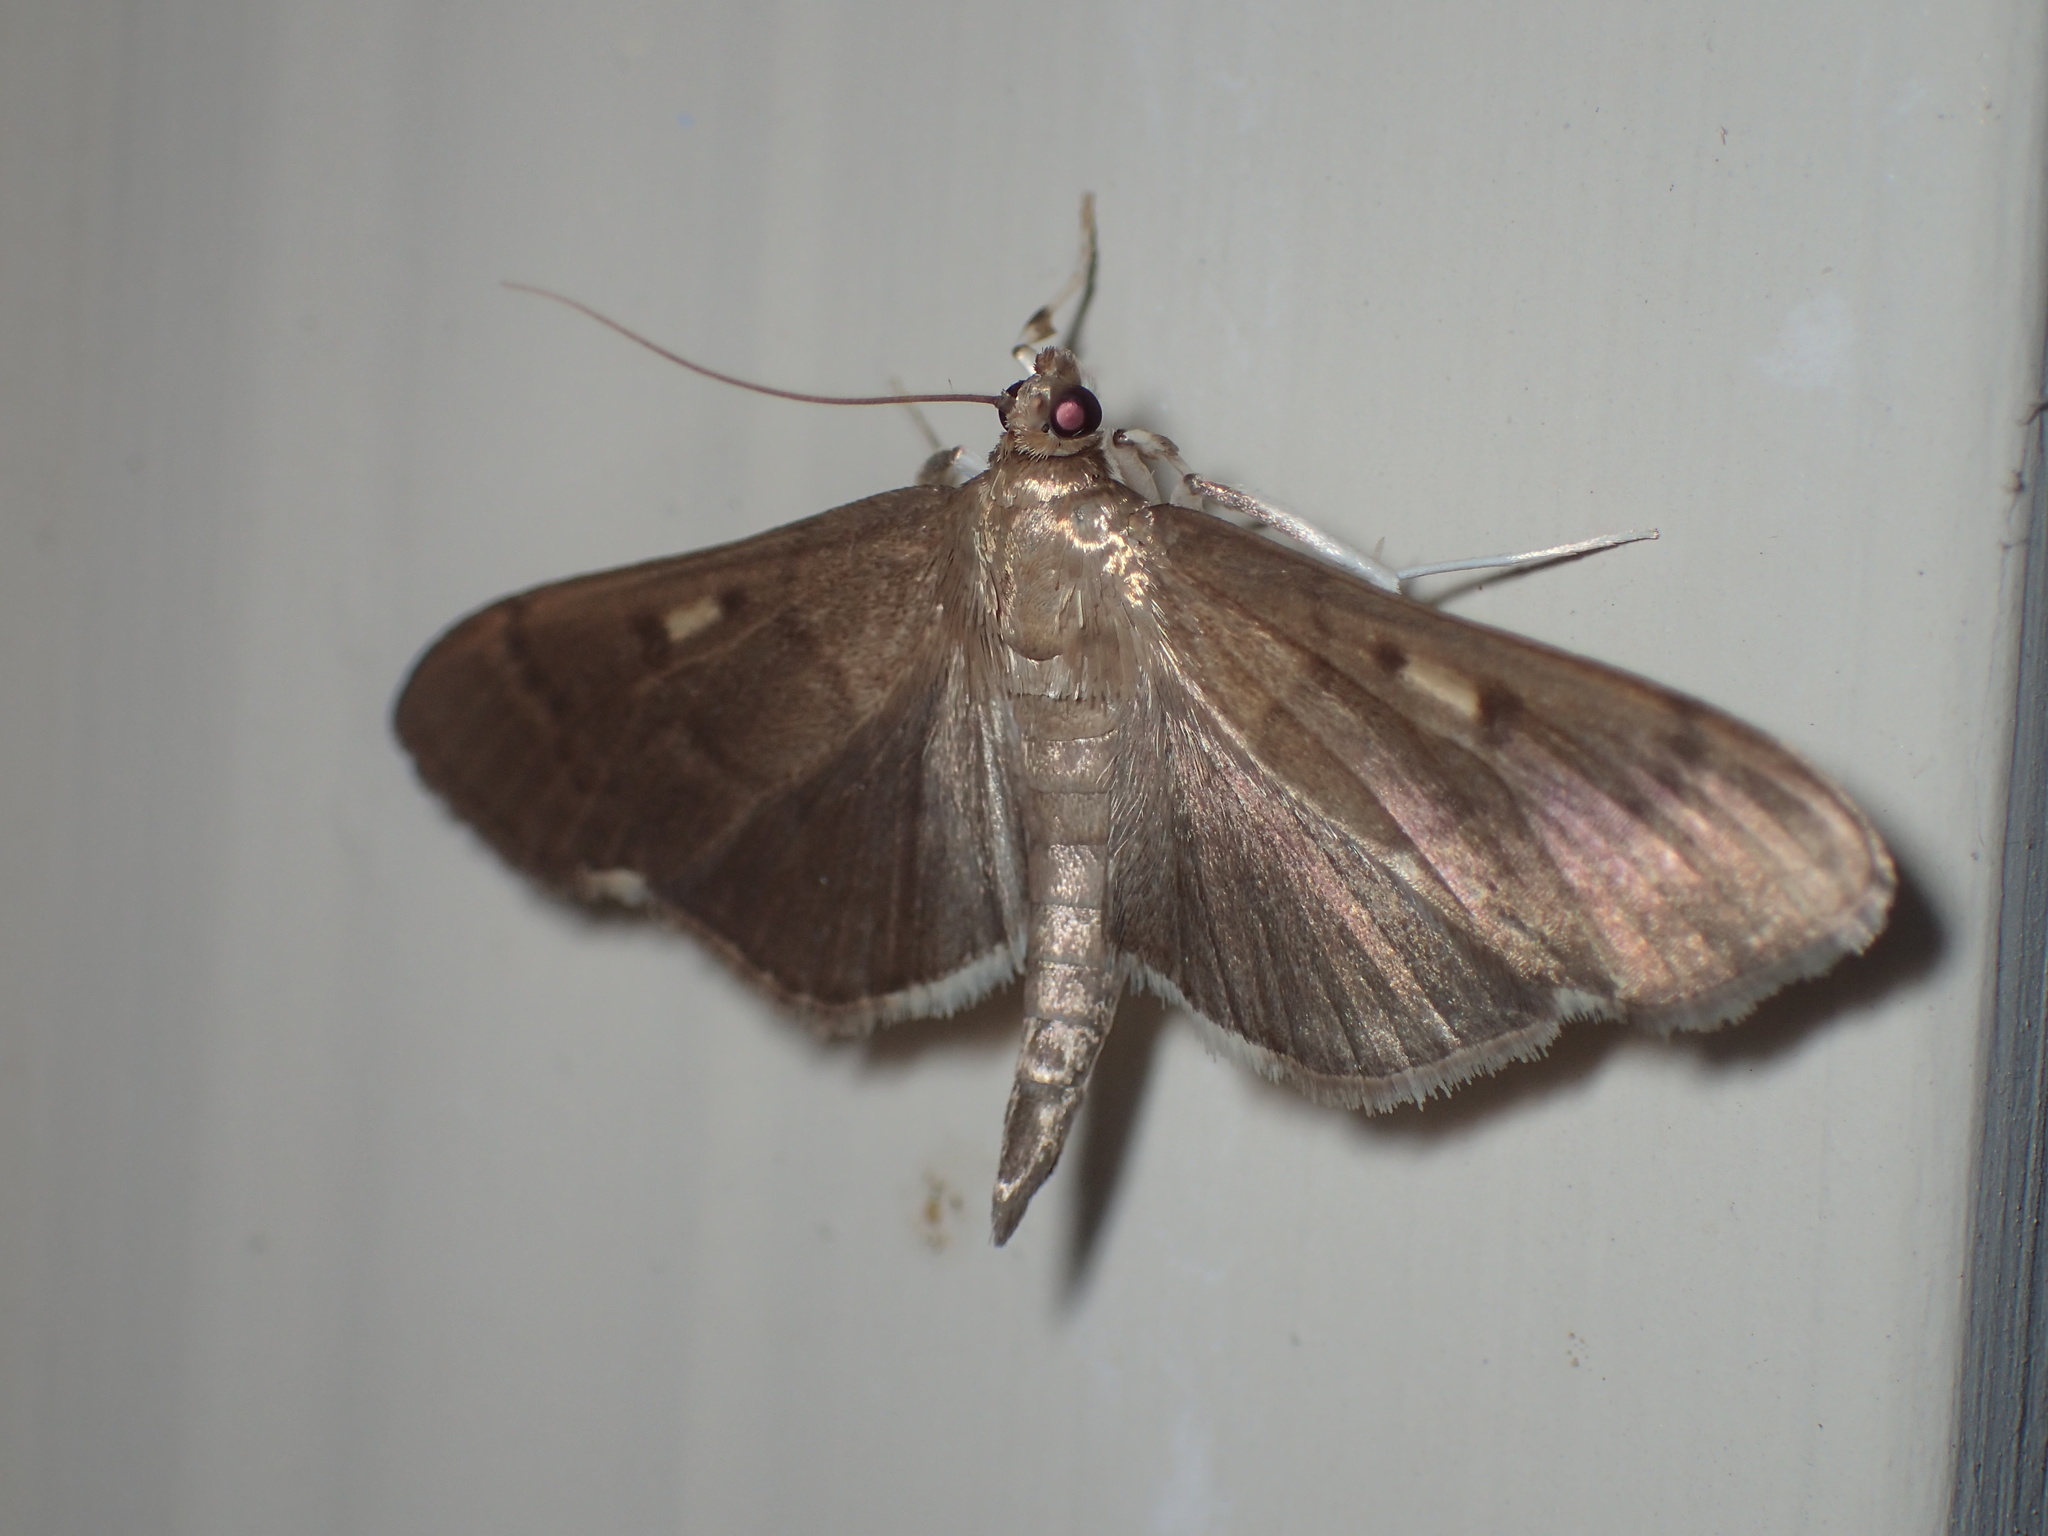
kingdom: Animalia
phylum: Arthropoda
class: Insecta
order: Lepidoptera
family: Crambidae
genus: Herpetogramma
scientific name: Herpetogramma sphingealis
